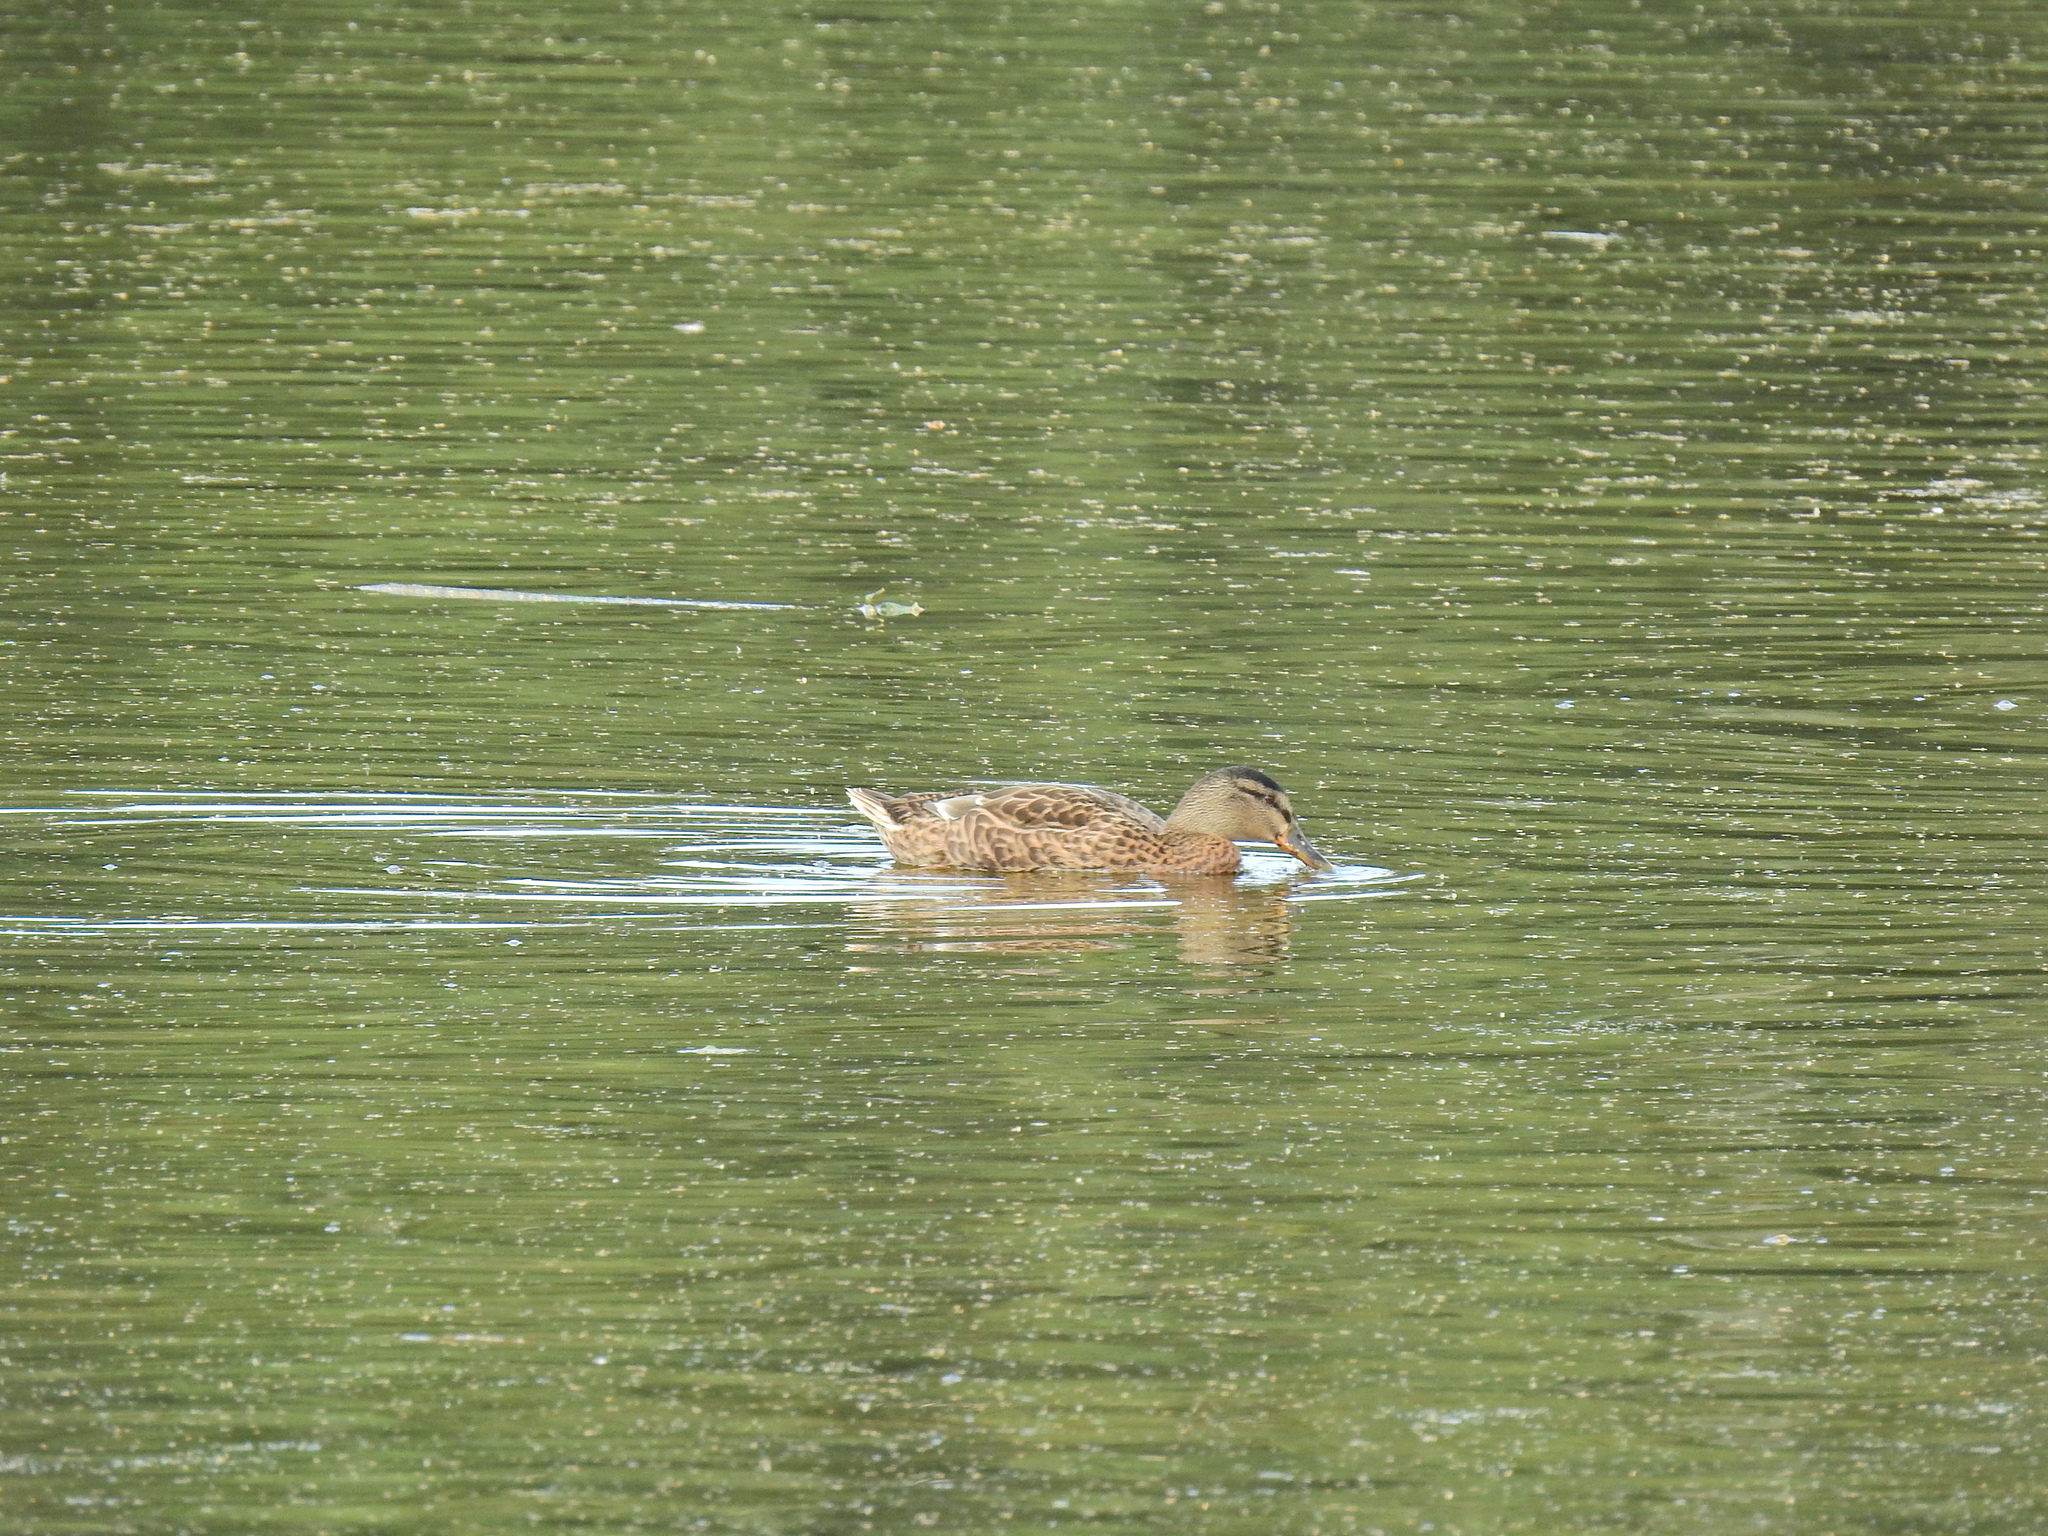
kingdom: Animalia
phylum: Chordata
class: Aves
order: Anseriformes
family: Anatidae
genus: Anas
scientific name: Anas platyrhynchos
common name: Mallard
